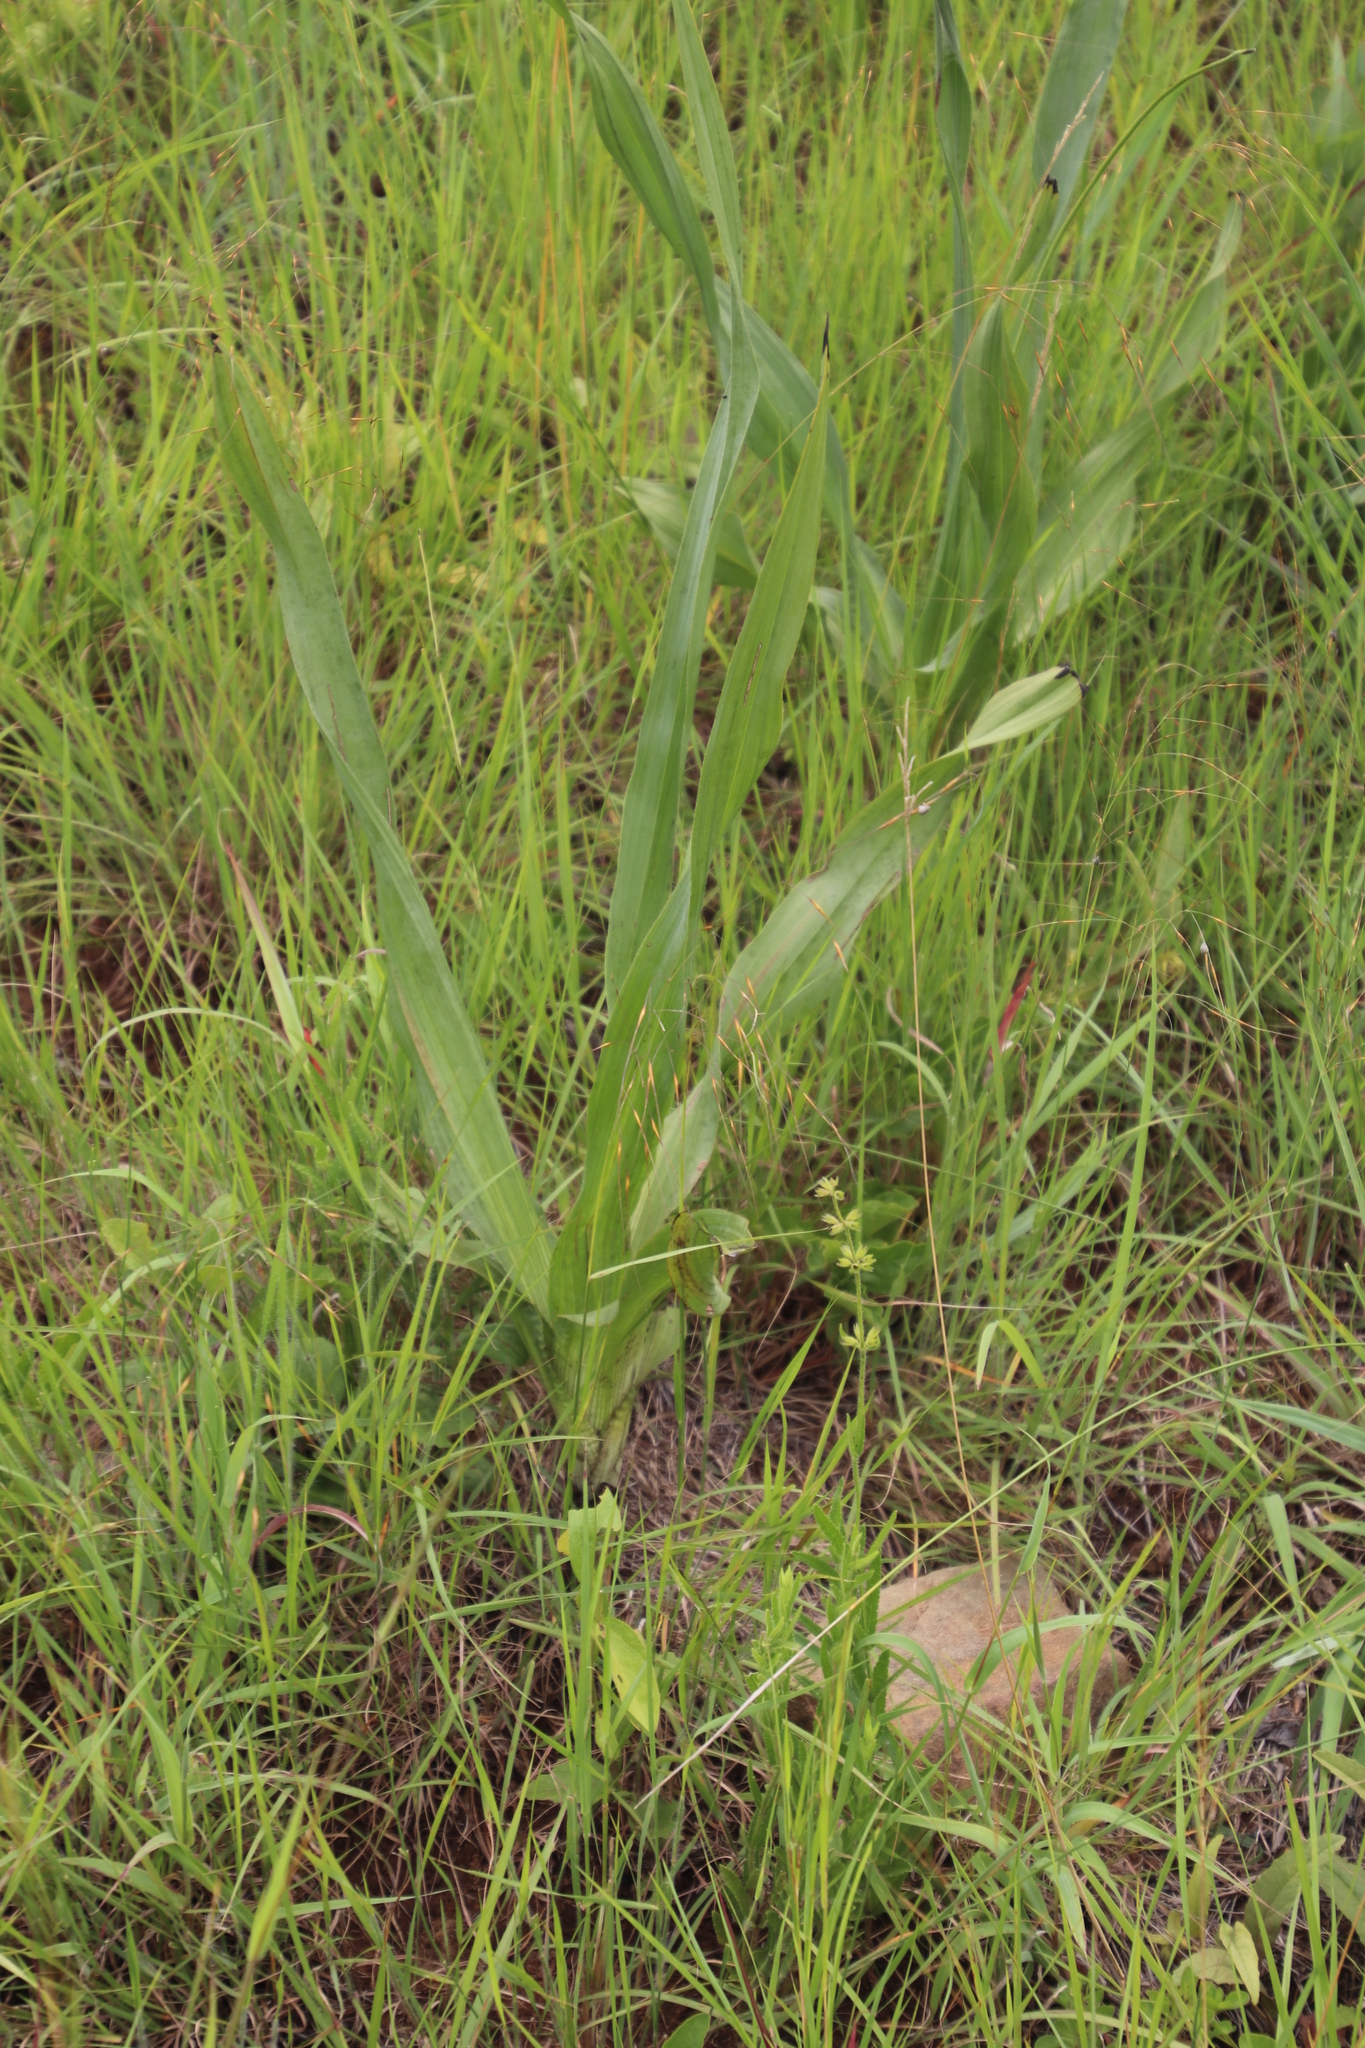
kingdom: Plantae
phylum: Tracheophyta
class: Liliopsida
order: Asparagales
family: Hypoxidaceae
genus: Hypoxis
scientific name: Hypoxis galpinii
